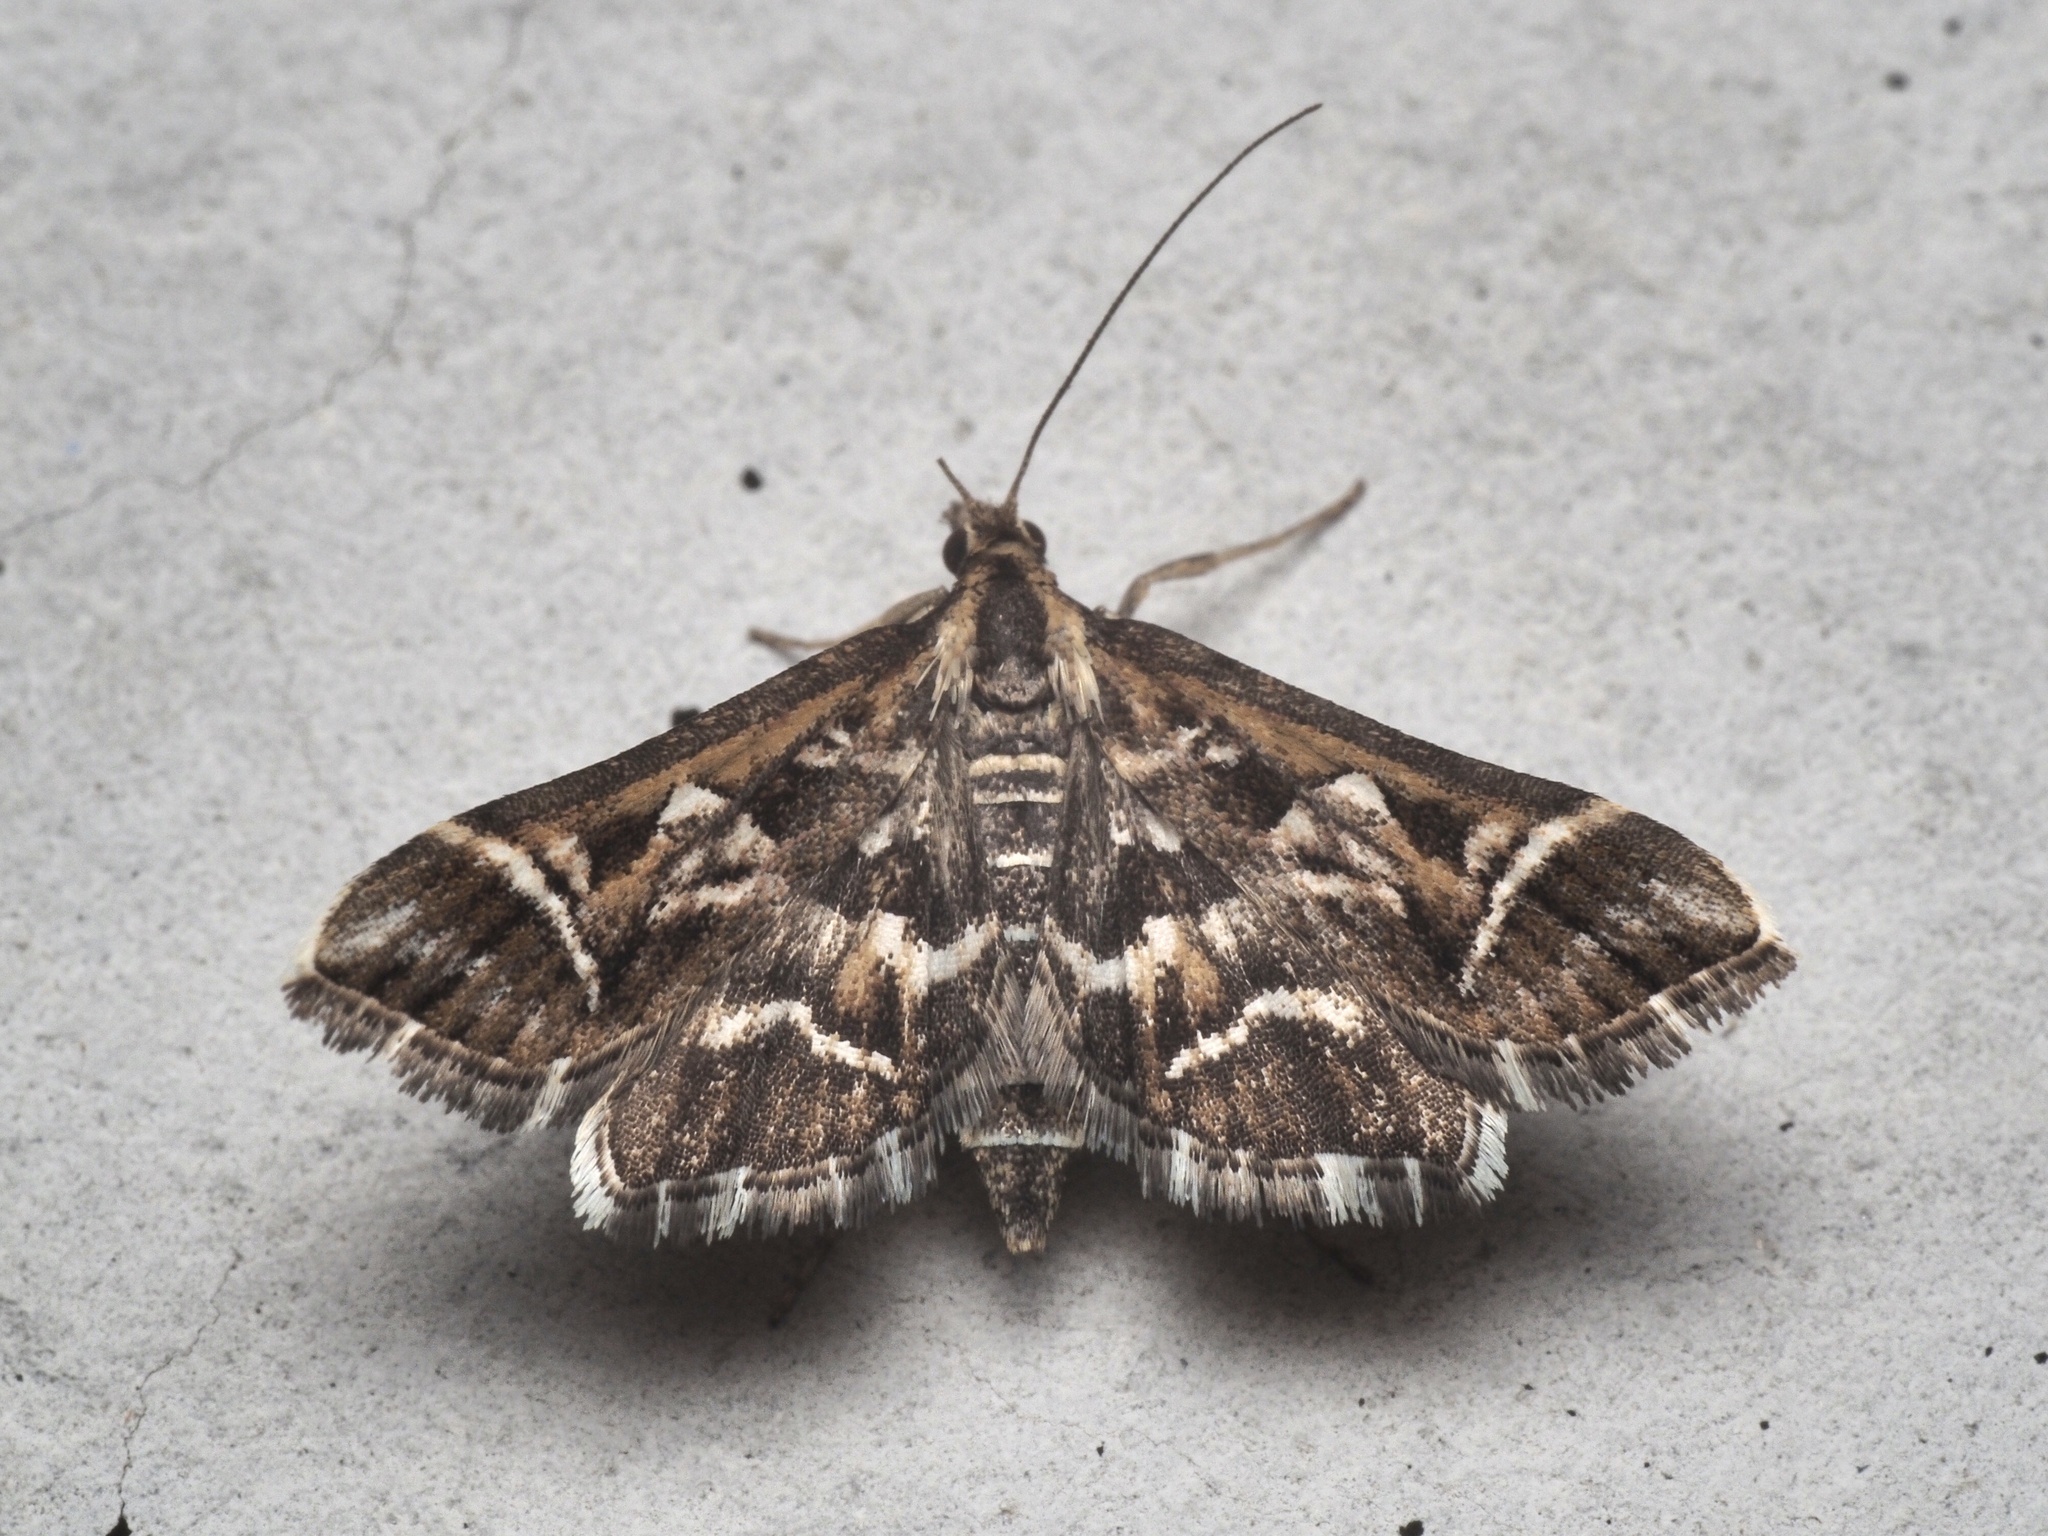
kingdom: Animalia
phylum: Arthropoda
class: Insecta
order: Lepidoptera
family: Crambidae
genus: Diasemia
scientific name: Diasemia reticularis
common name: Lettered china-mark
